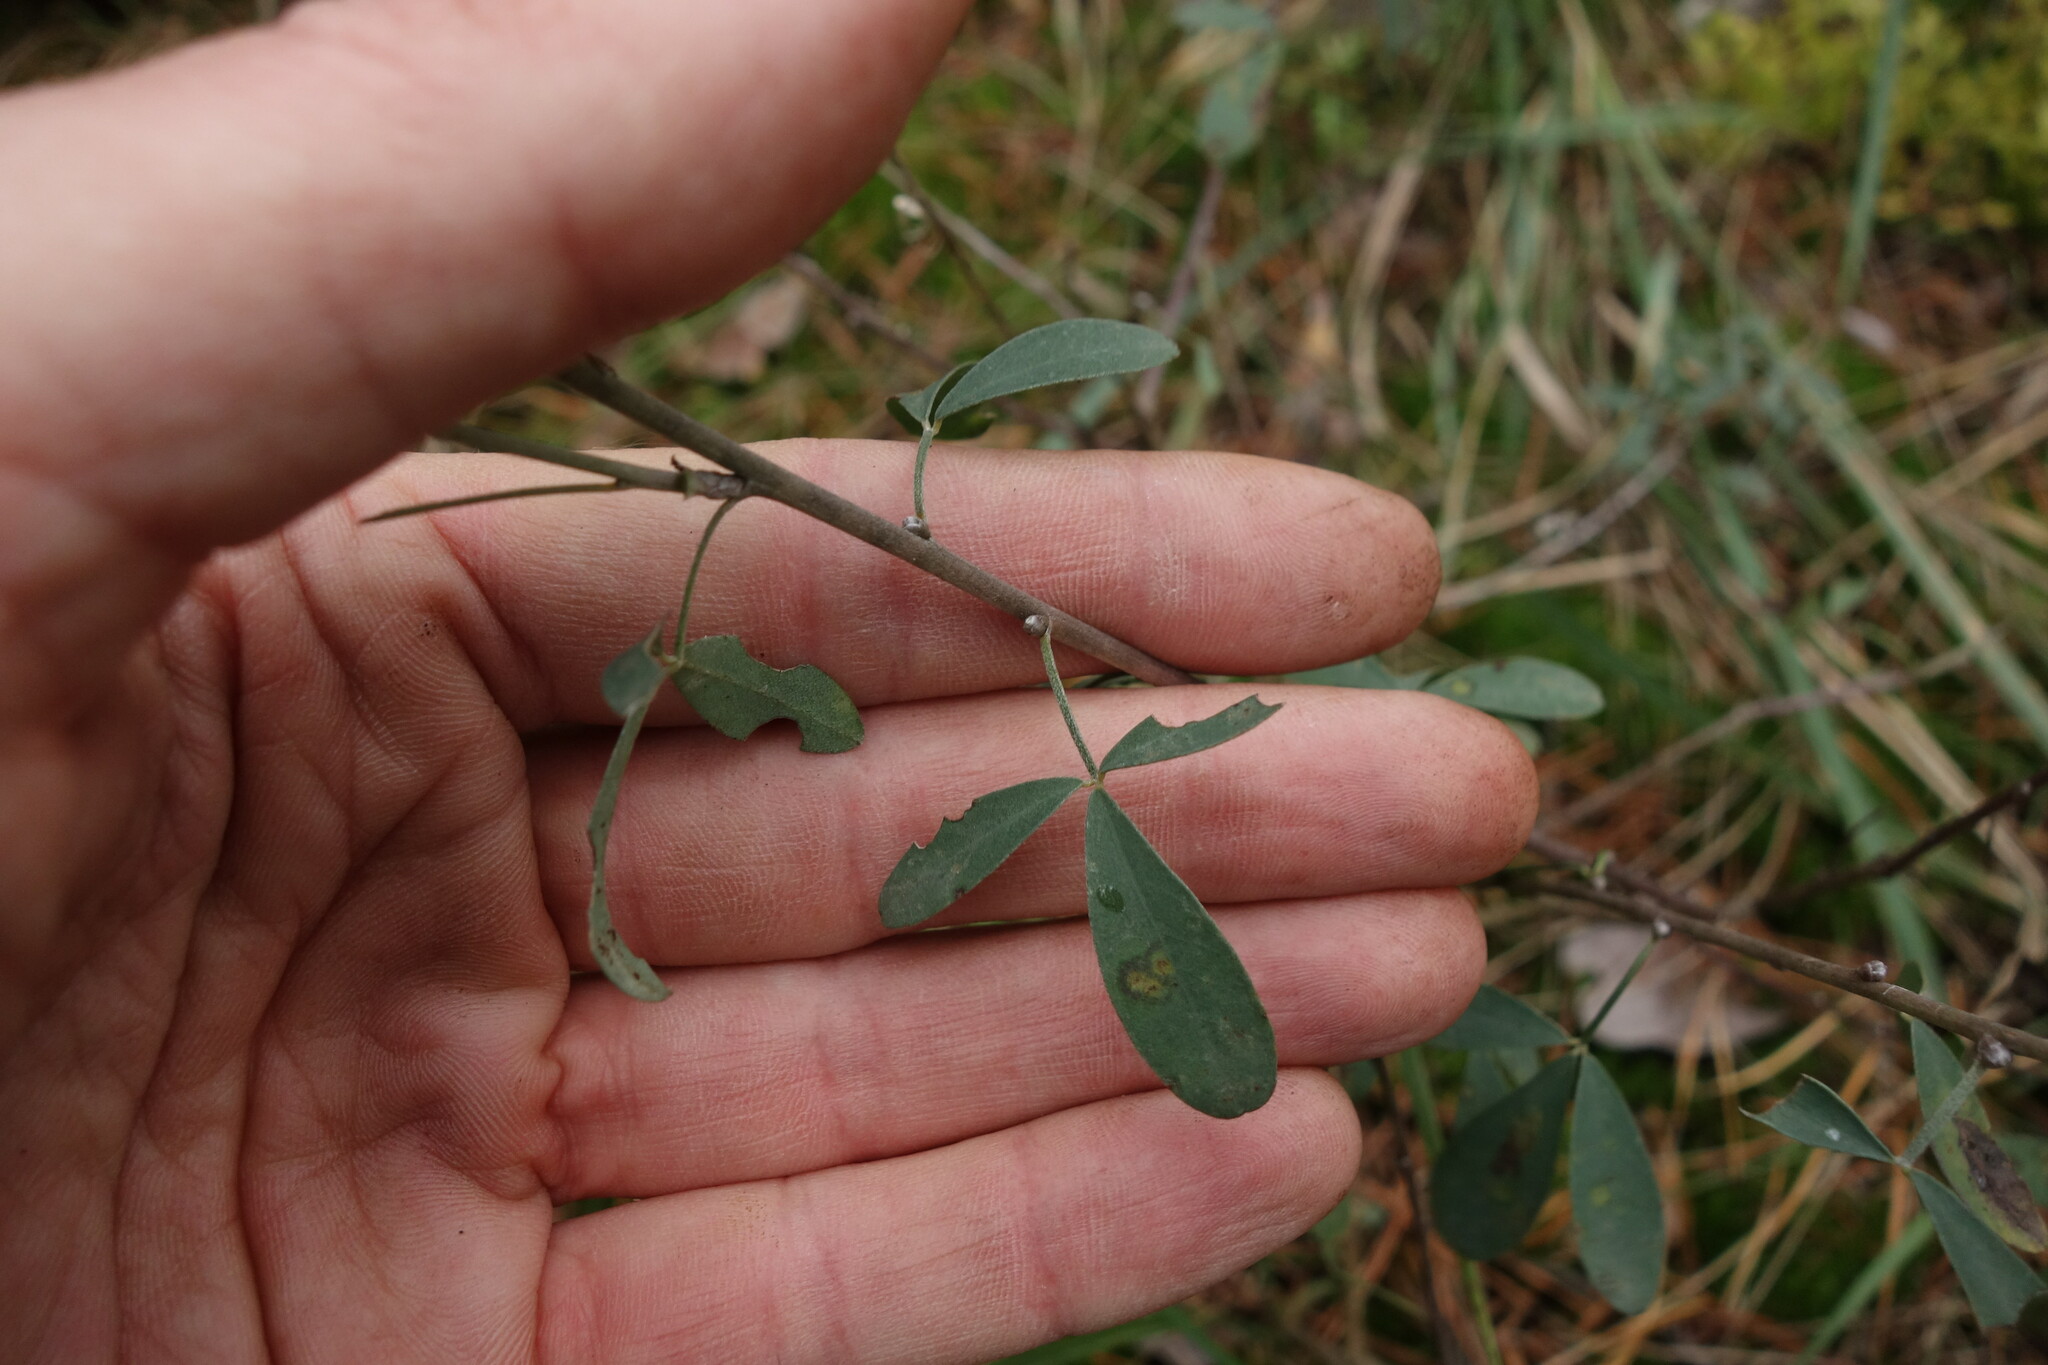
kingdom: Plantae
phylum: Tracheophyta
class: Magnoliopsida
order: Fabales
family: Fabaceae
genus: Chamaecytisus
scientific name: Chamaecytisus ruthenicus
